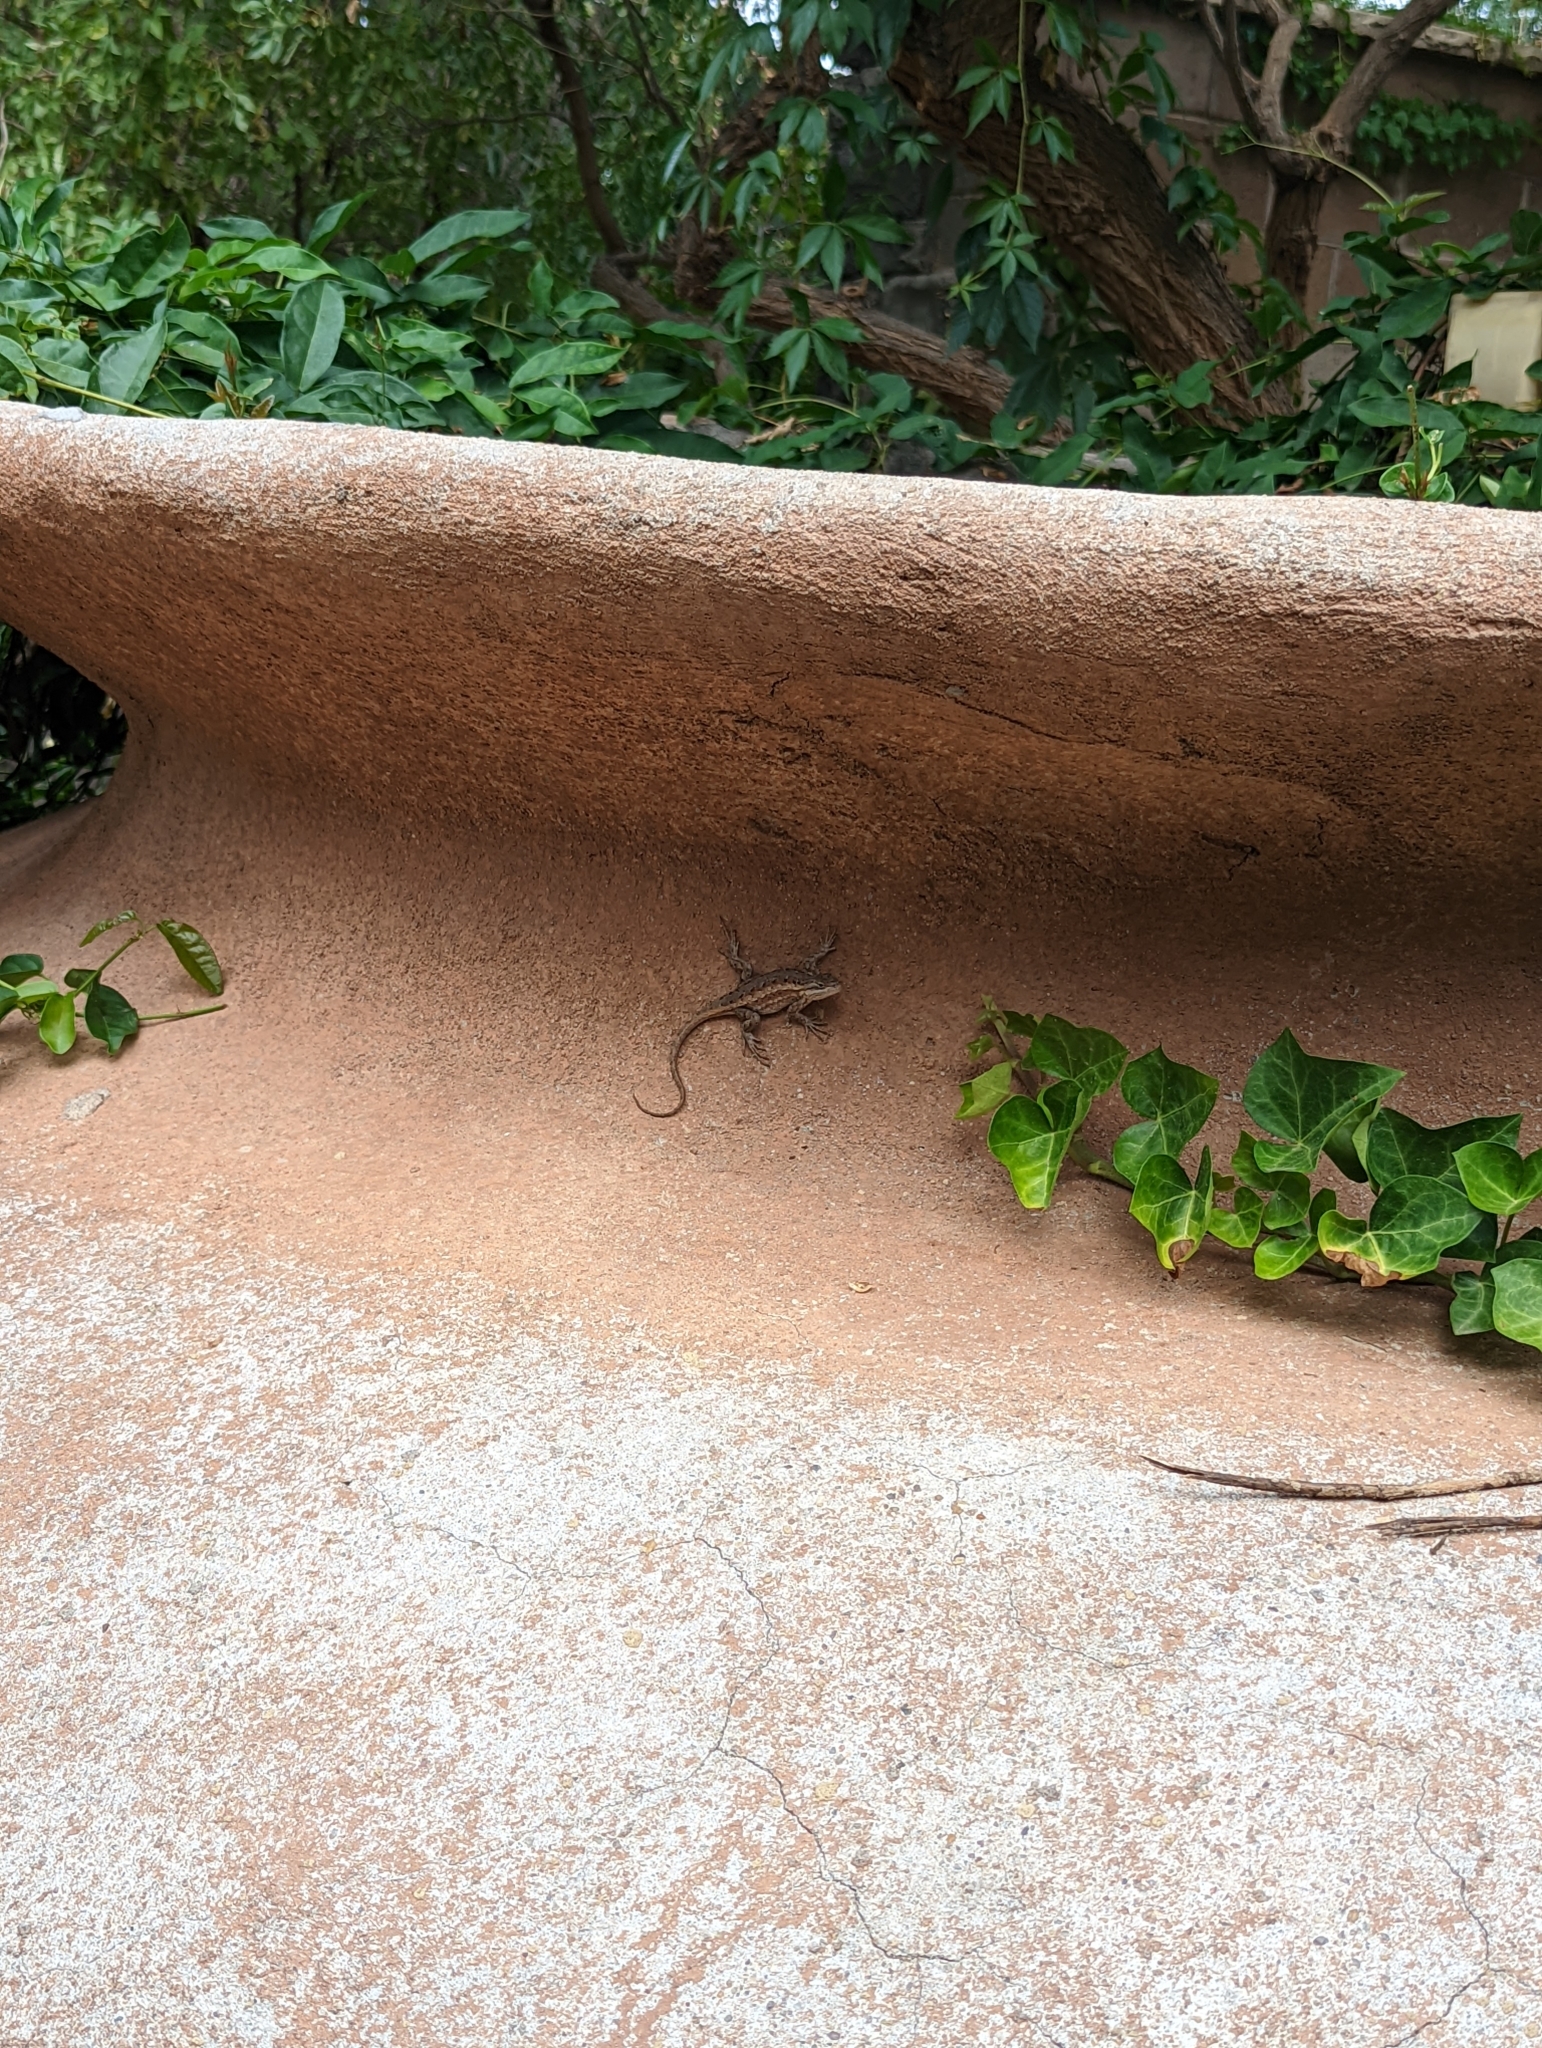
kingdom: Animalia
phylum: Chordata
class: Squamata
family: Phrynosomatidae
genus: Sceloporus
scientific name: Sceloporus cowlesi
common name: White sands prairie lizard
